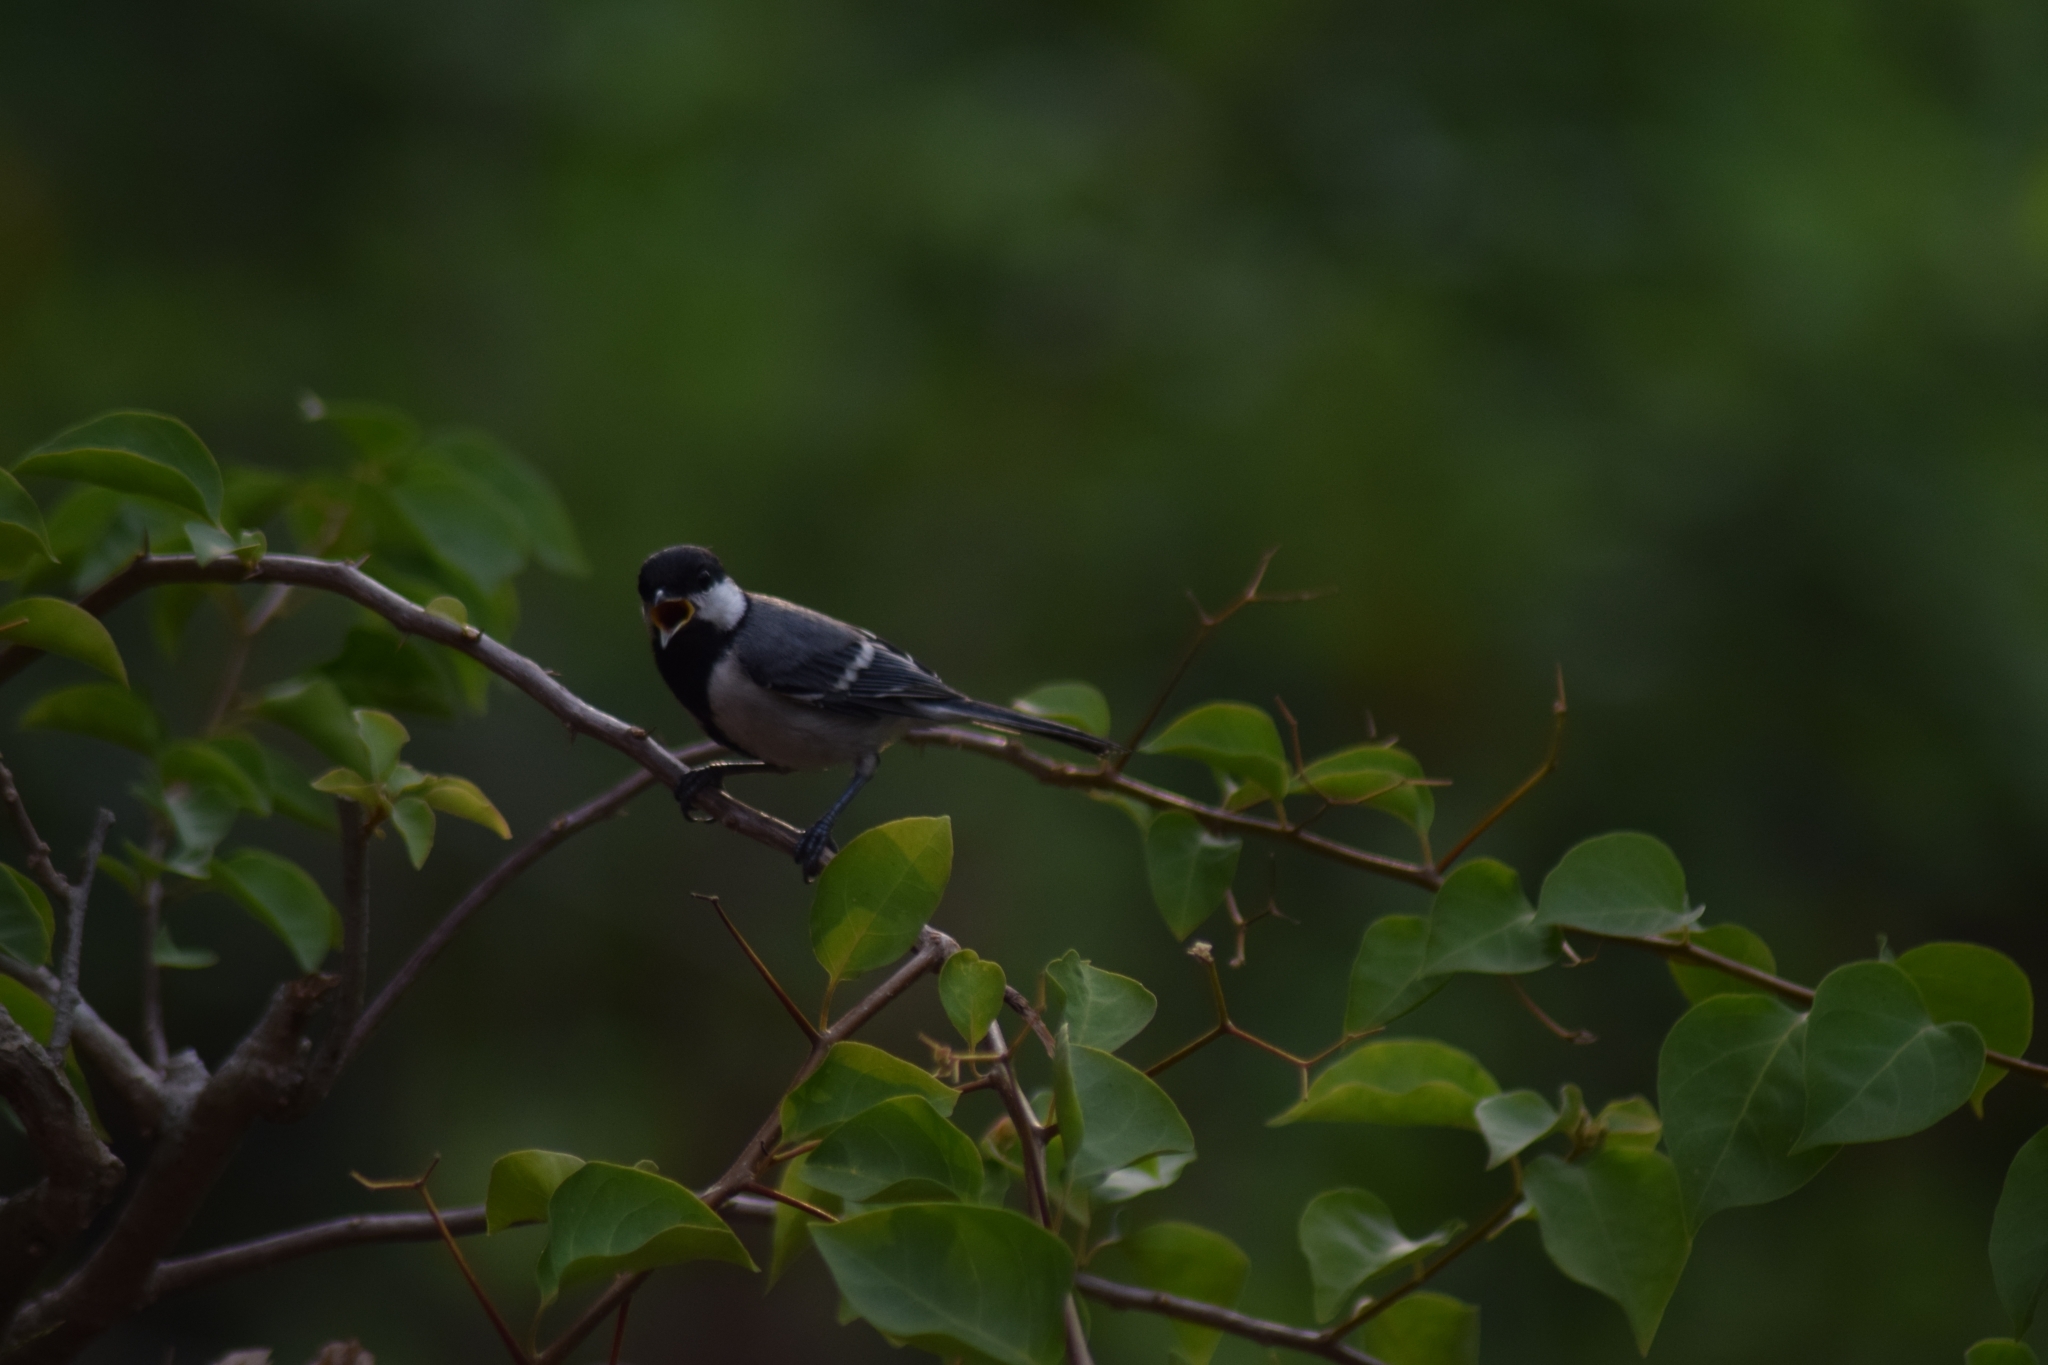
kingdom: Animalia
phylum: Chordata
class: Aves
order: Passeriformes
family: Paridae
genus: Parus
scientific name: Parus cinereus
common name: Cinereous tit
